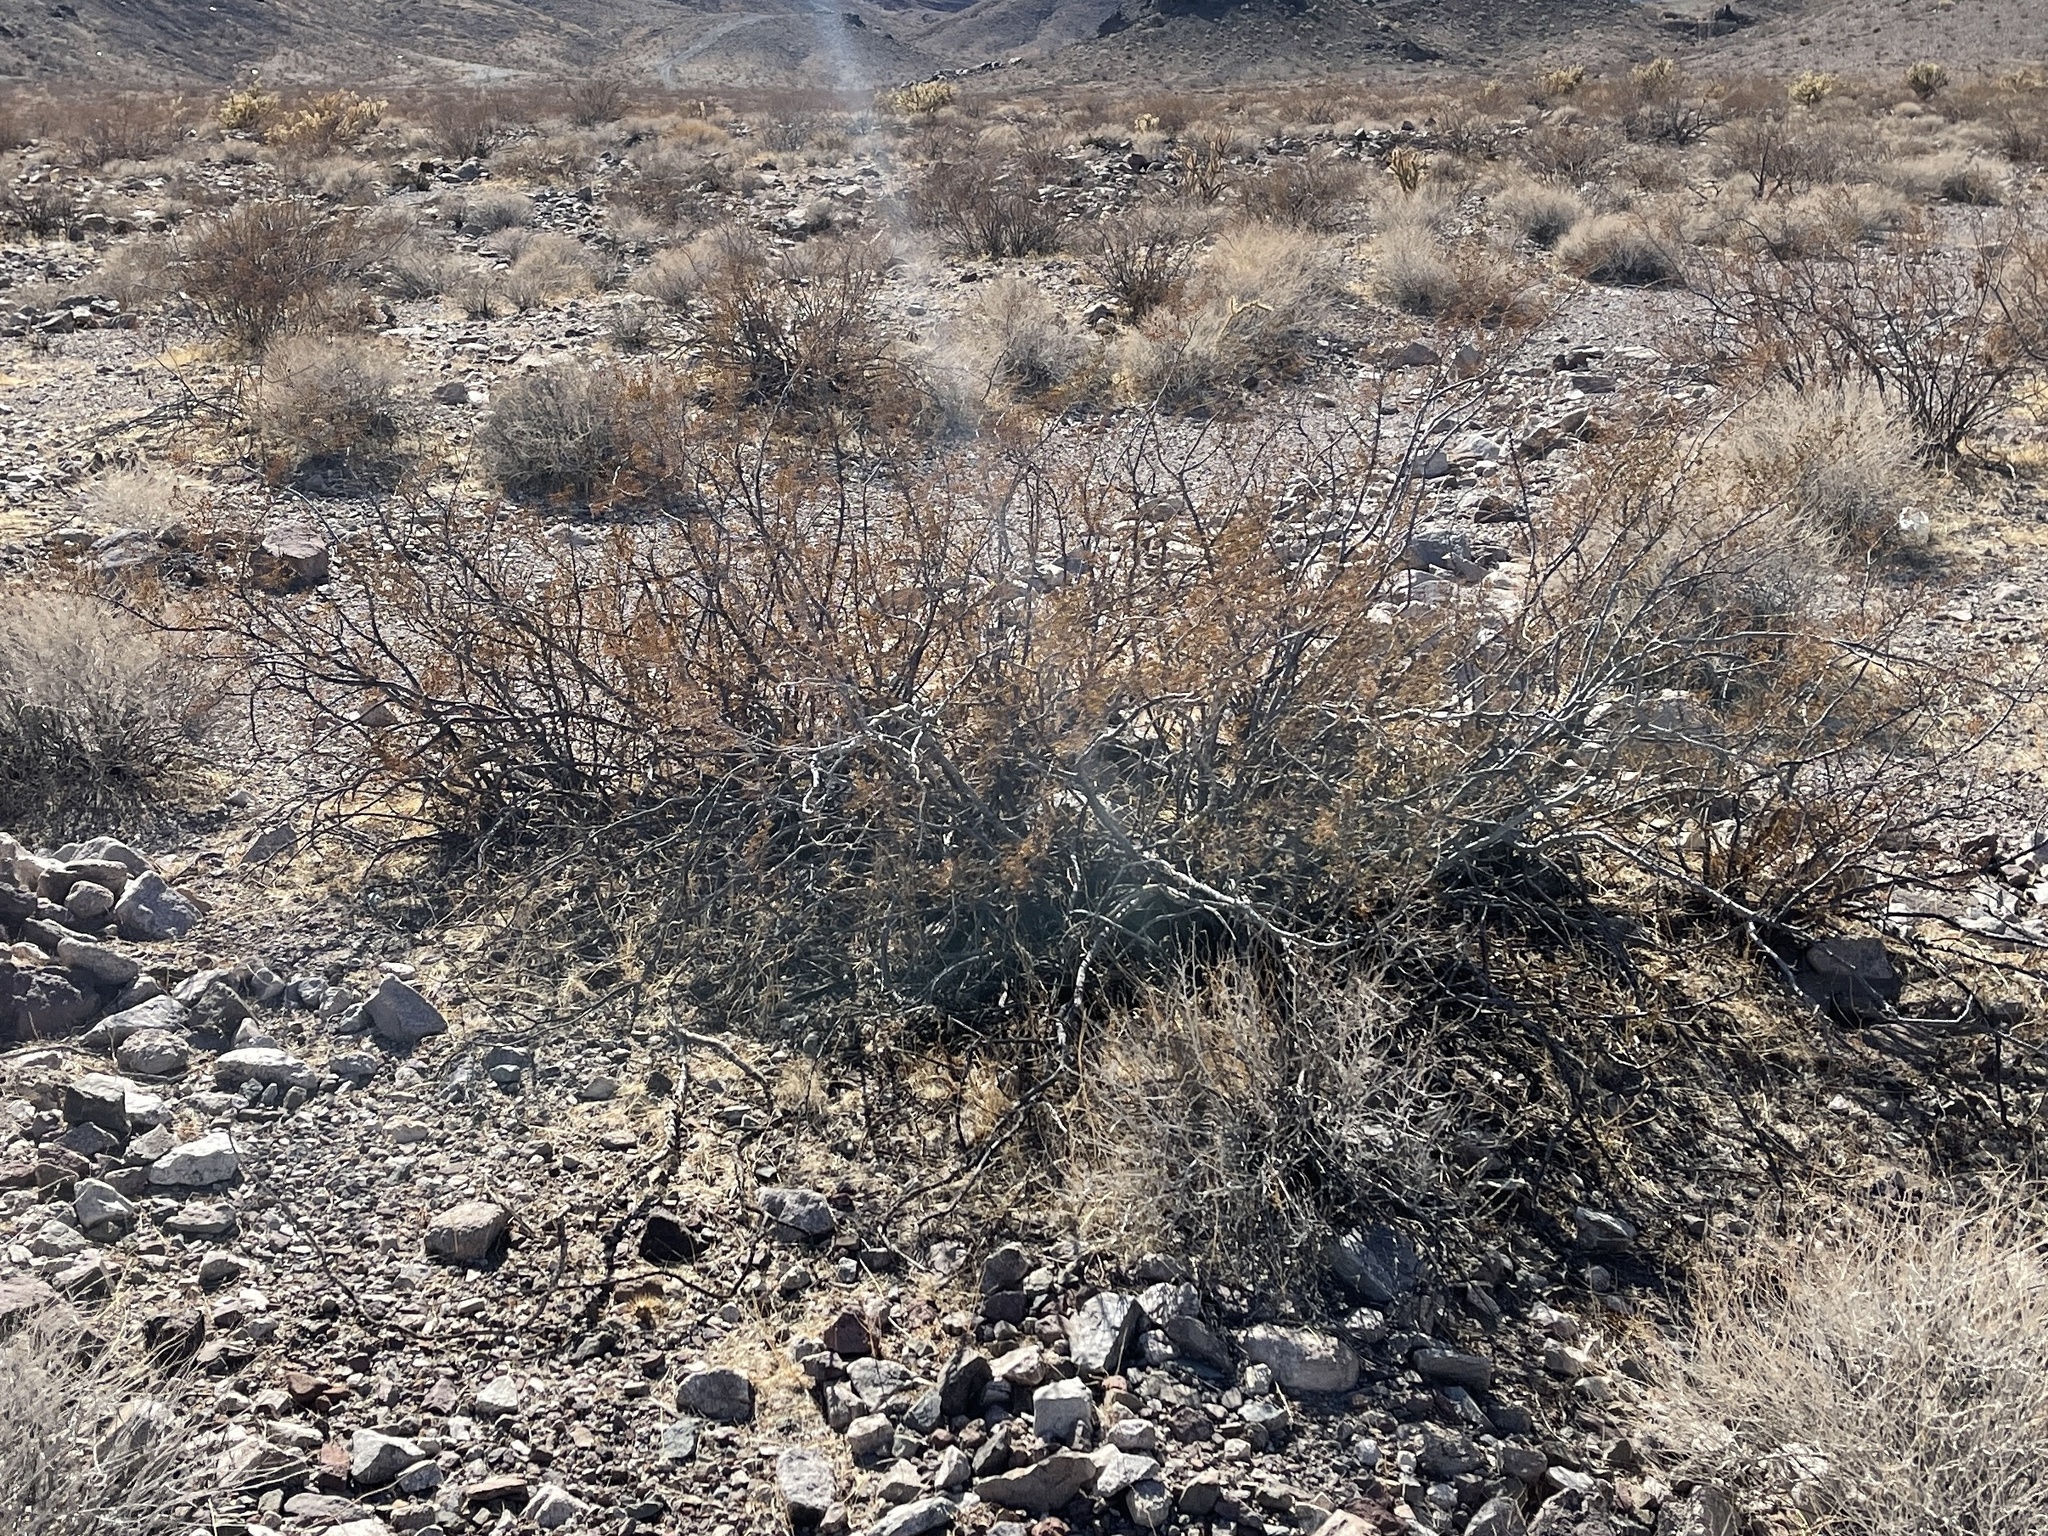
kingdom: Plantae
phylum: Tracheophyta
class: Magnoliopsida
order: Zygophyllales
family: Zygophyllaceae
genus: Larrea
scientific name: Larrea tridentata
